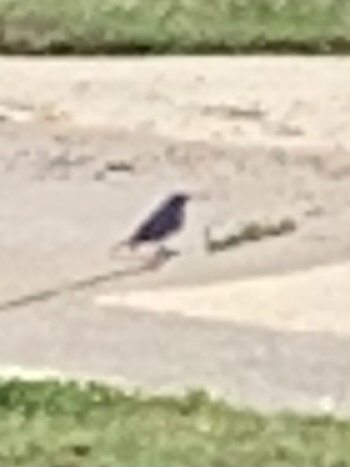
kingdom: Animalia
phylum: Chordata
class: Aves
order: Passeriformes
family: Turdidae
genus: Sialia
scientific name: Sialia sialis
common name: Eastern bluebird
